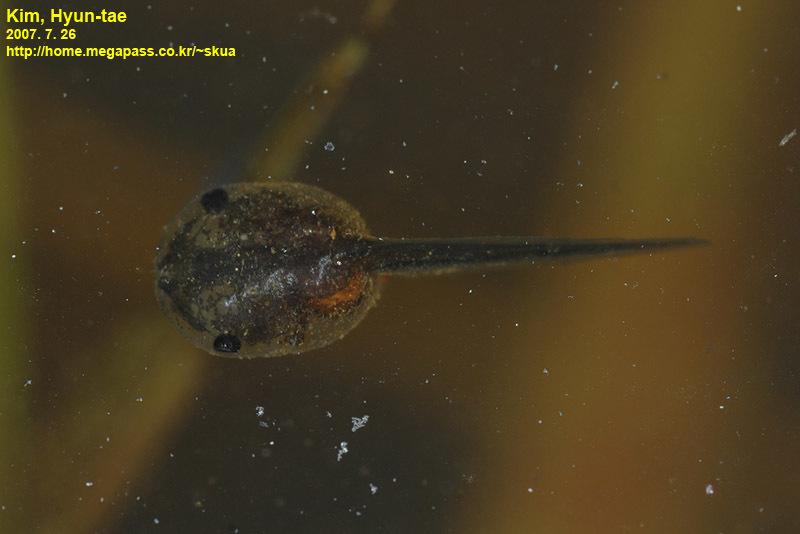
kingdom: Animalia
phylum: Chordata
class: Amphibia
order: Anura
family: Microhylidae
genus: Kaloula
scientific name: Kaloula borealis
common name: Boreal digging frog
